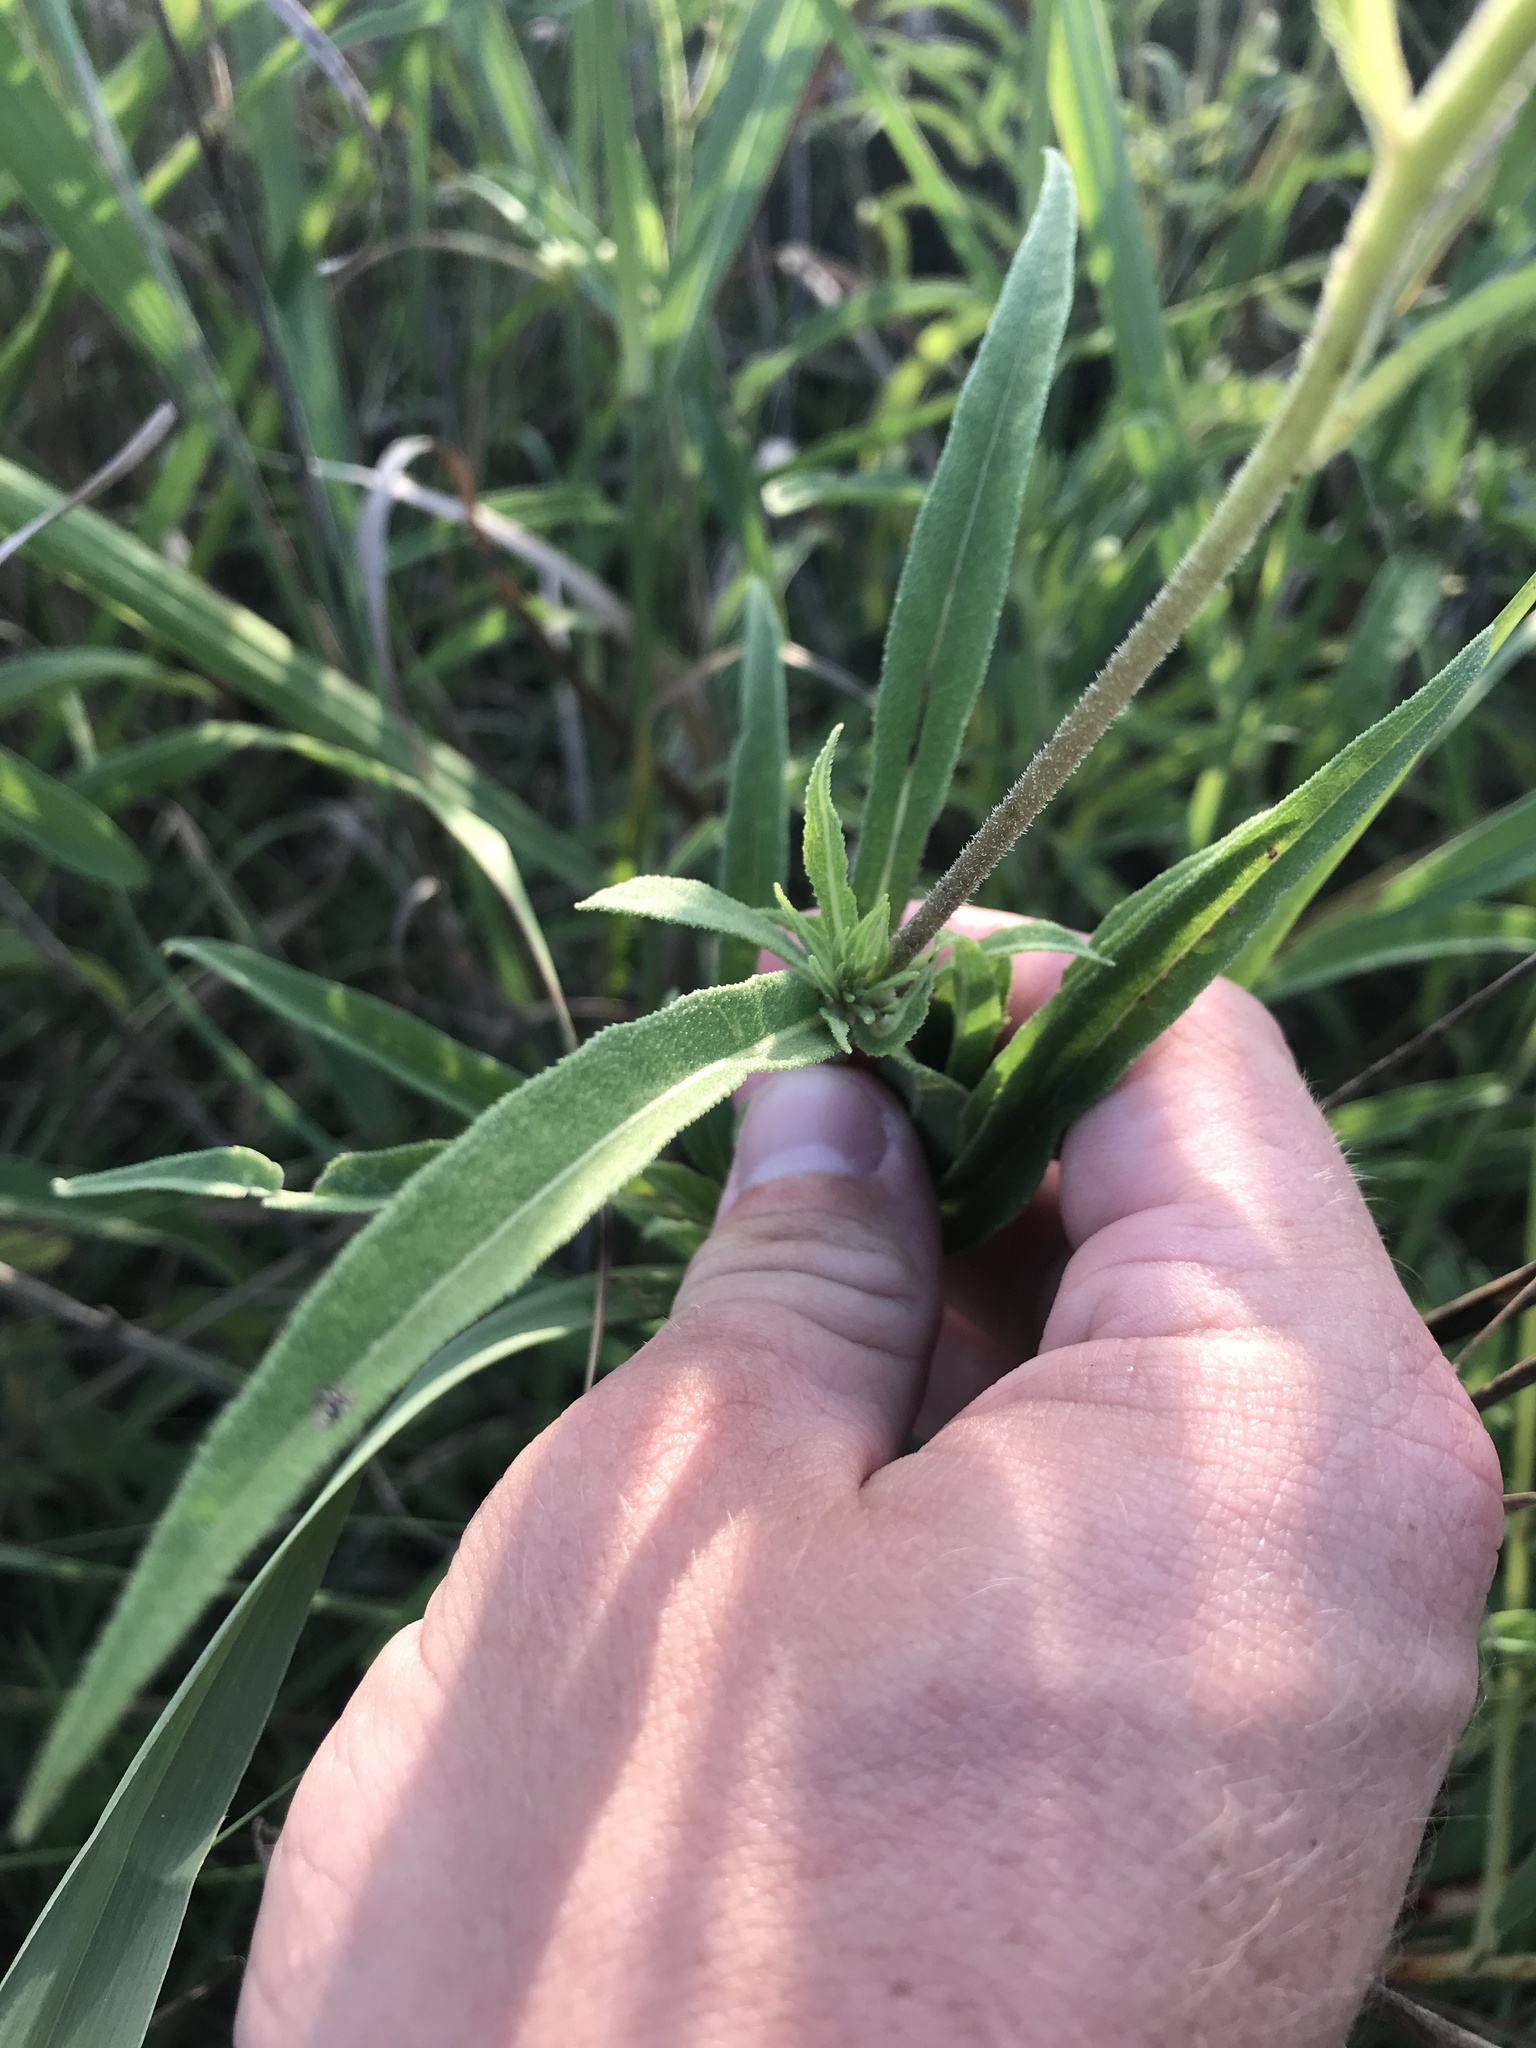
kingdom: Plantae
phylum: Tracheophyta
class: Magnoliopsida
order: Asterales
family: Asteraceae
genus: Helianthus
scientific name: Helianthus maximiliani
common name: Maximilian's sunflower
